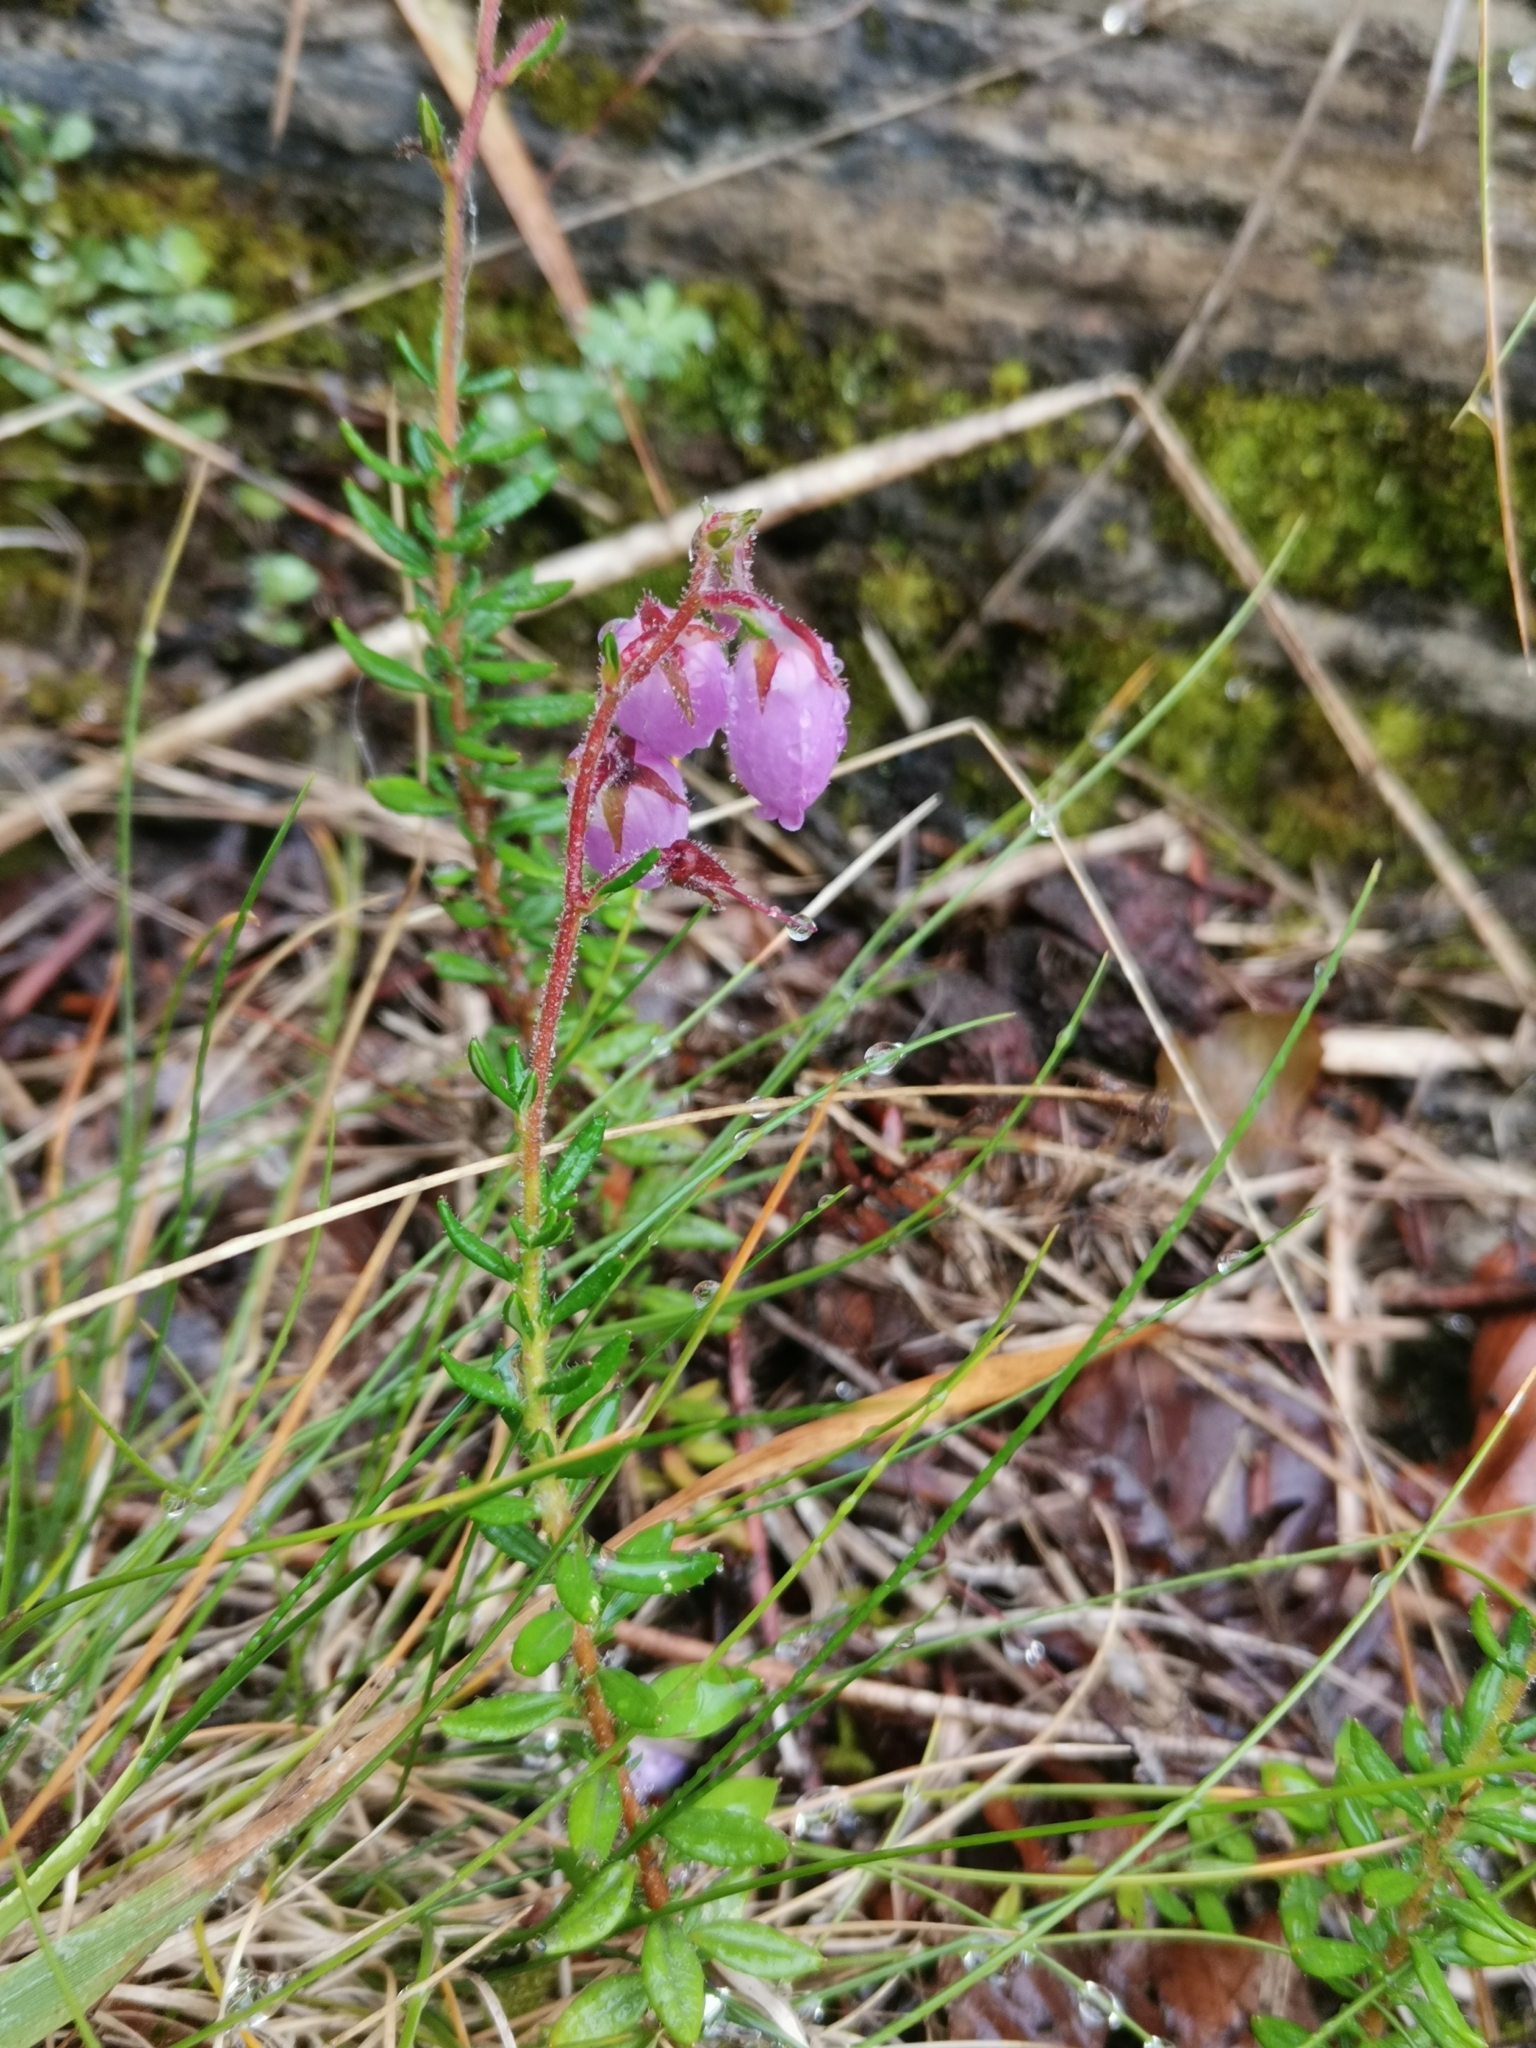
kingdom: Plantae
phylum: Tracheophyta
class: Magnoliopsida
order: Ericales
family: Ericaceae
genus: Daboecia
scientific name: Daboecia cantabrica
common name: St. dabeoc's-heath
